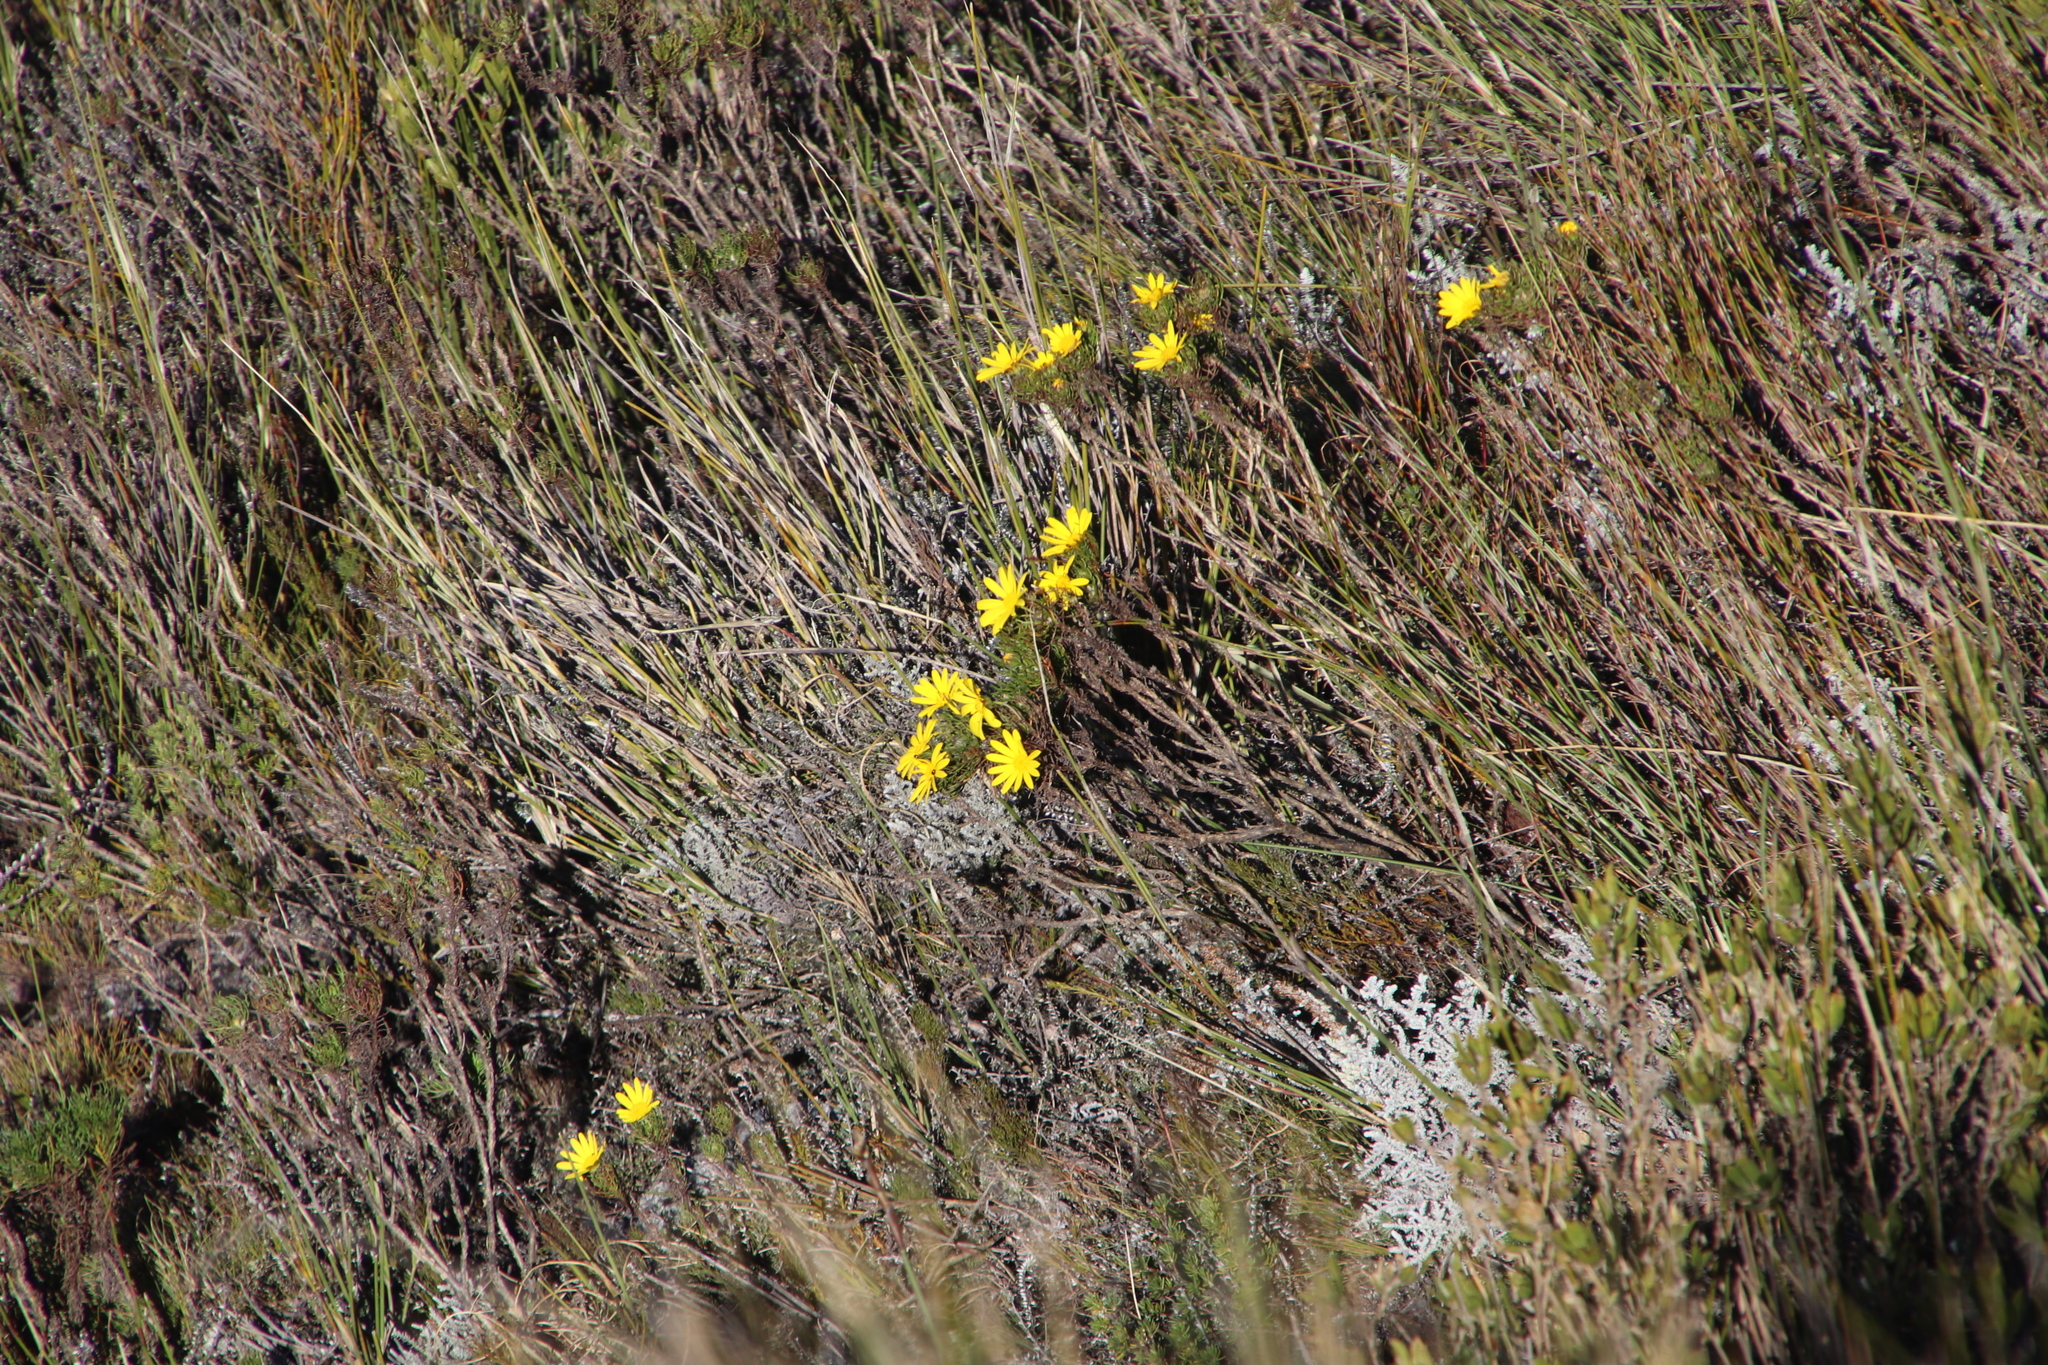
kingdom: Plantae
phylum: Tracheophyta
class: Magnoliopsida
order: Asterales
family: Asteraceae
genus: Euryops
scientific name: Euryops abrotanifolius
